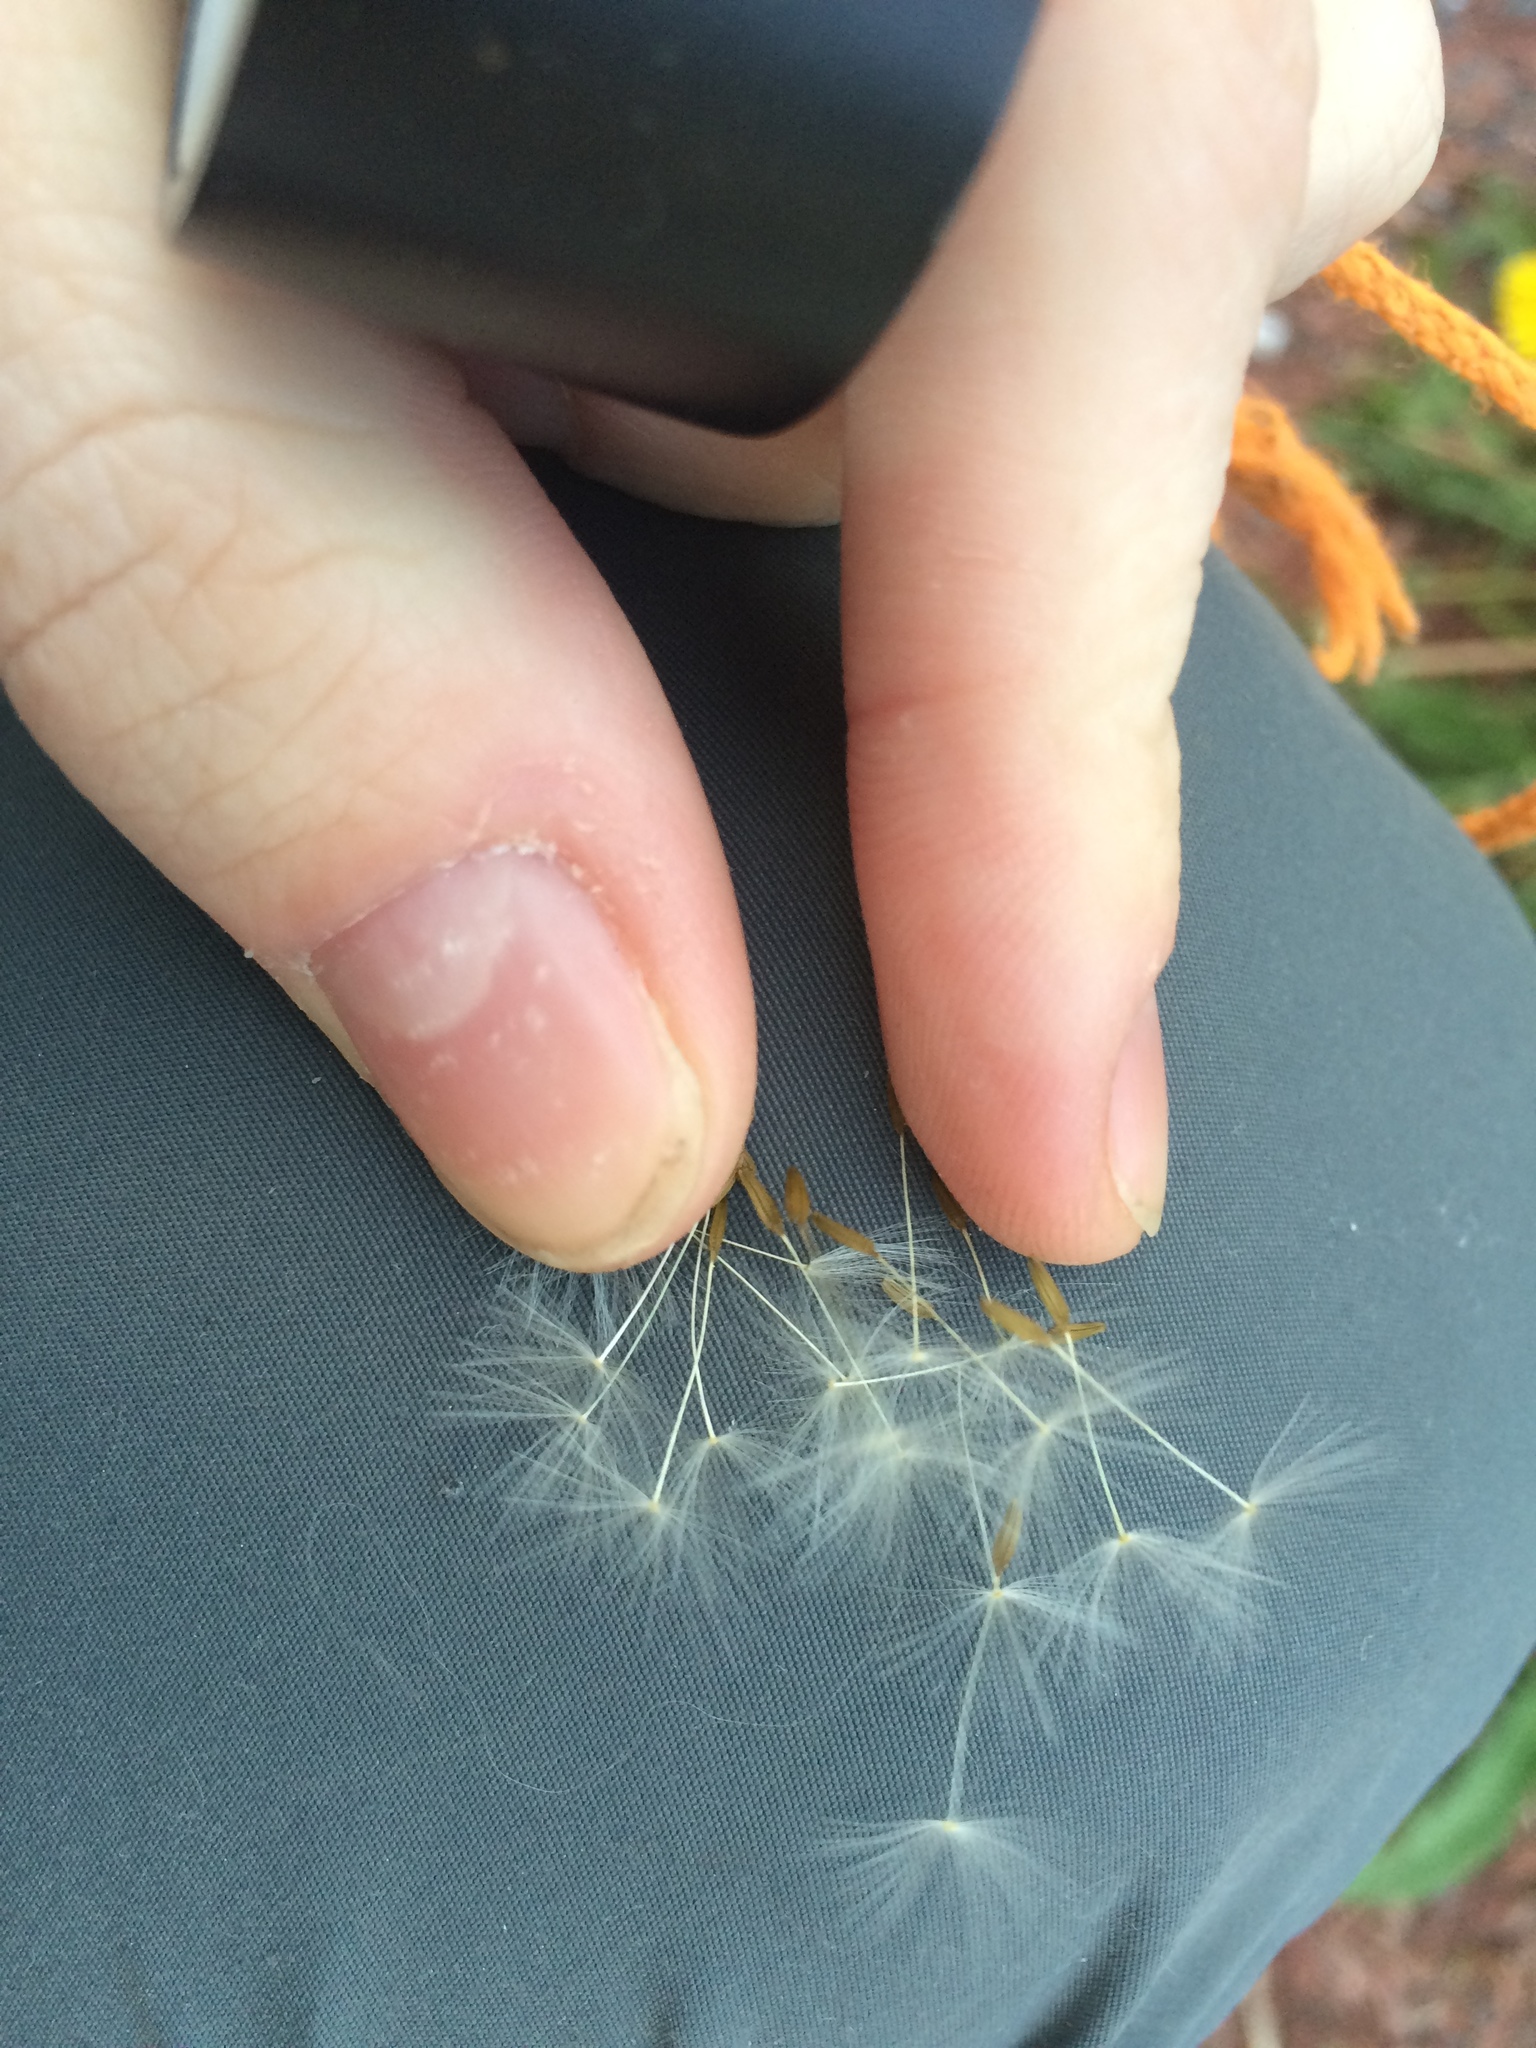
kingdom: Plantae
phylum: Tracheophyta
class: Magnoliopsida
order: Asterales
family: Asteraceae
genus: Taraxacum
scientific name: Taraxacum officinale
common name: Common dandelion
